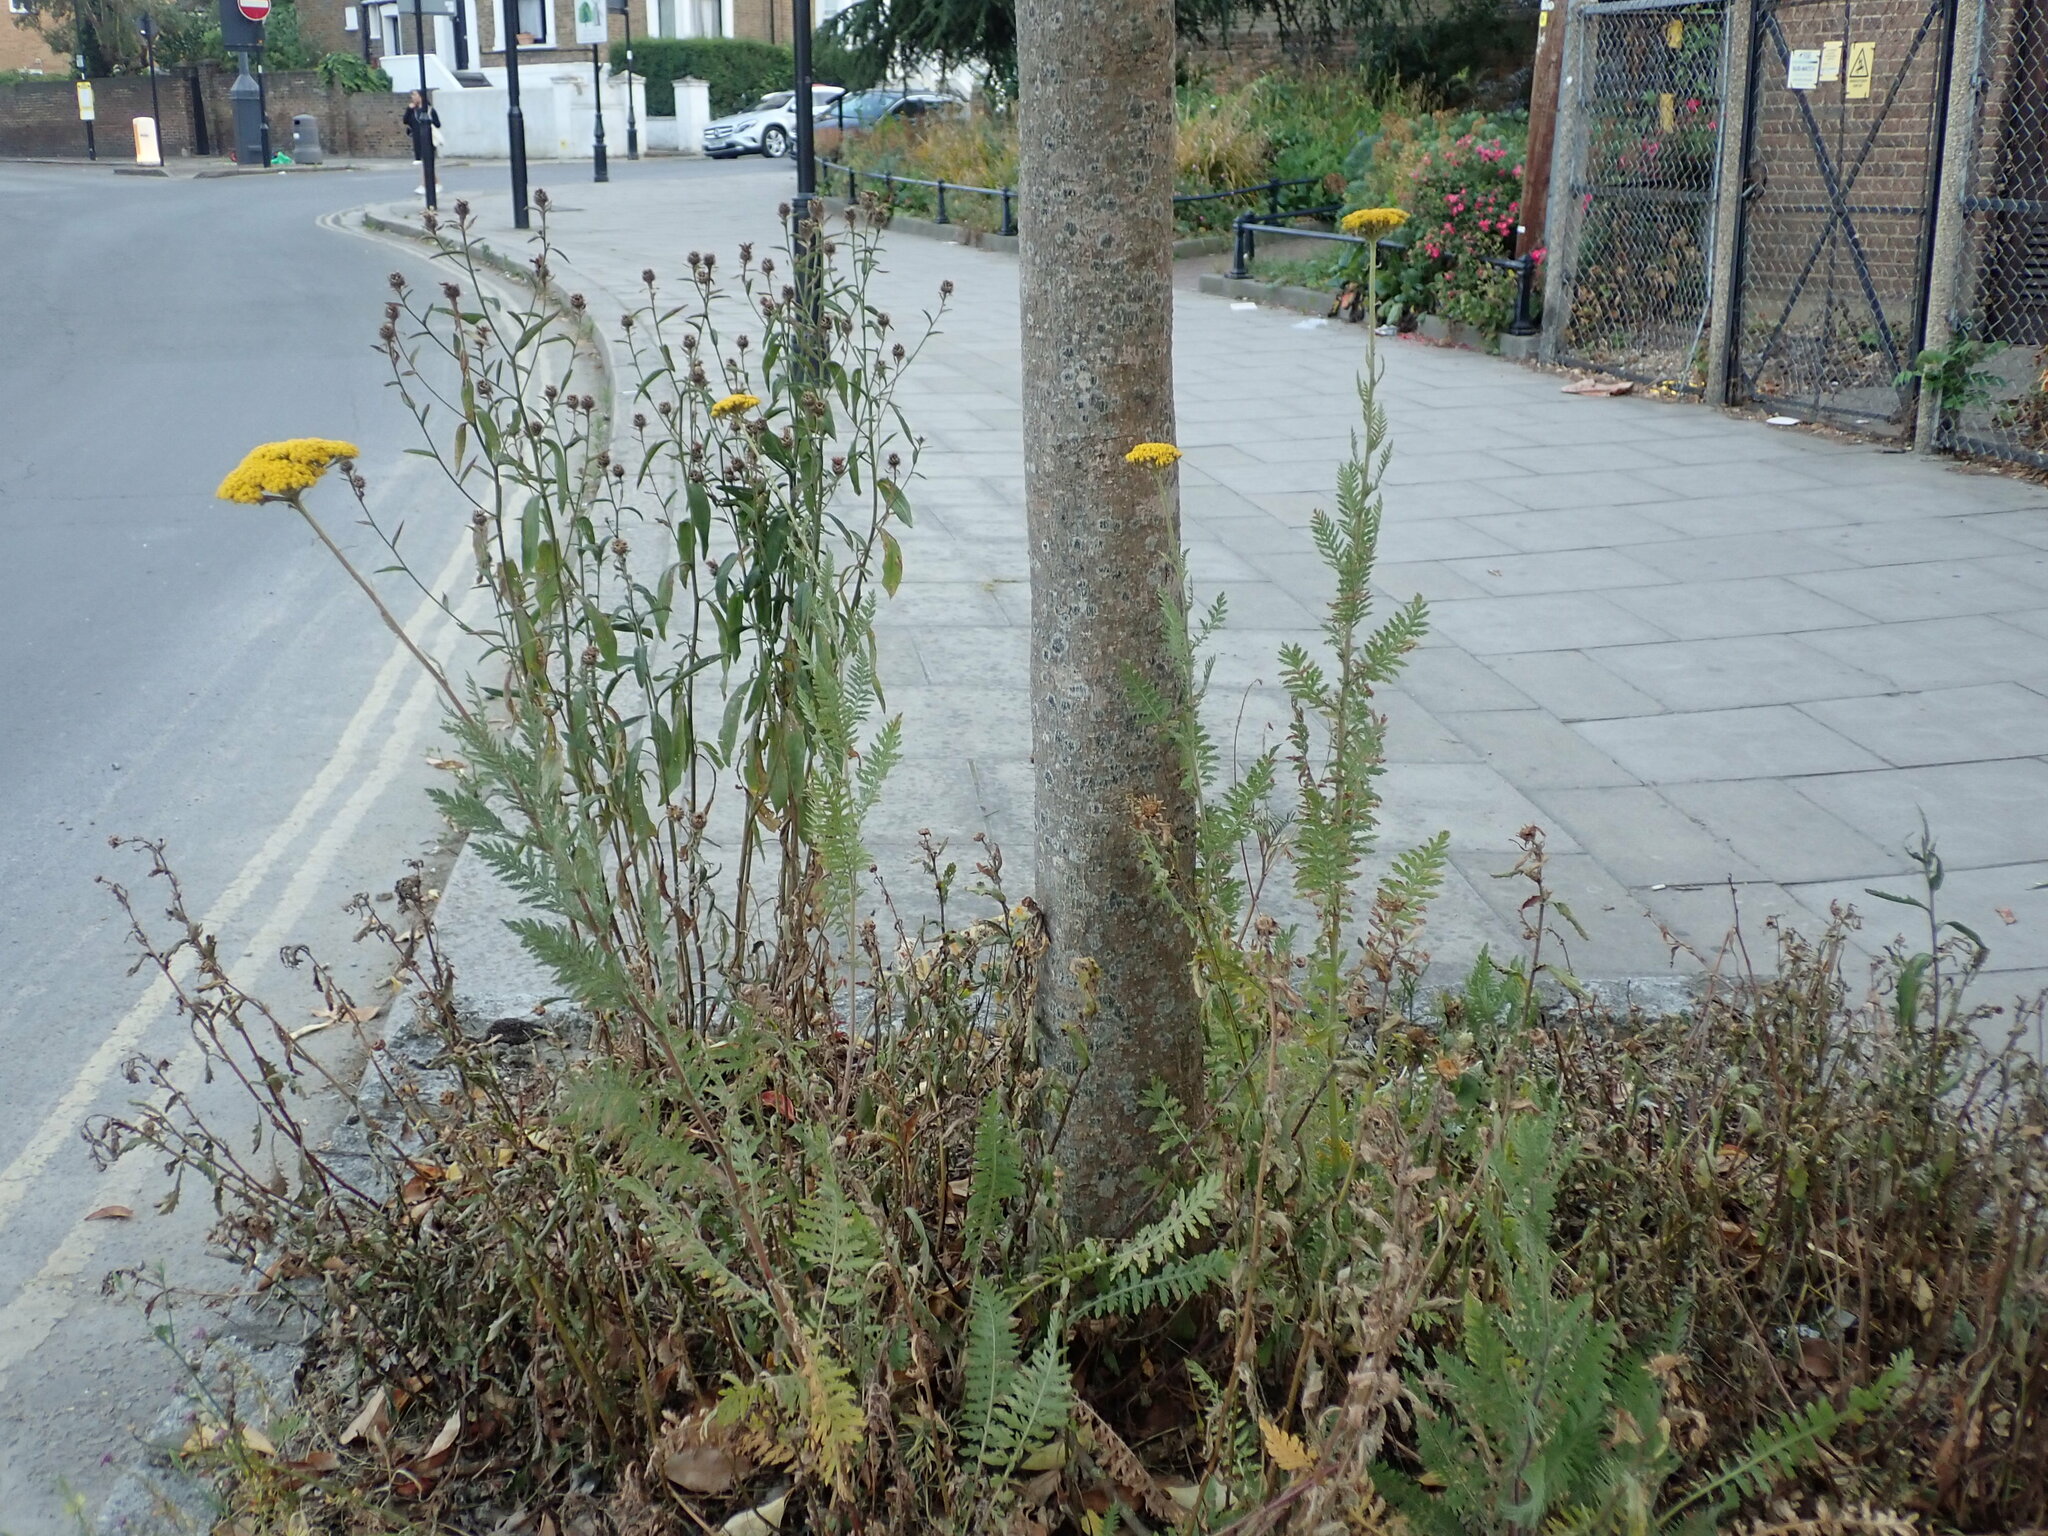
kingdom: Plantae
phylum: Tracheophyta
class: Magnoliopsida
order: Asterales
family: Asteraceae
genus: Achillea
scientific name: Achillea filipendulina
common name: Fernleaf yarrow
